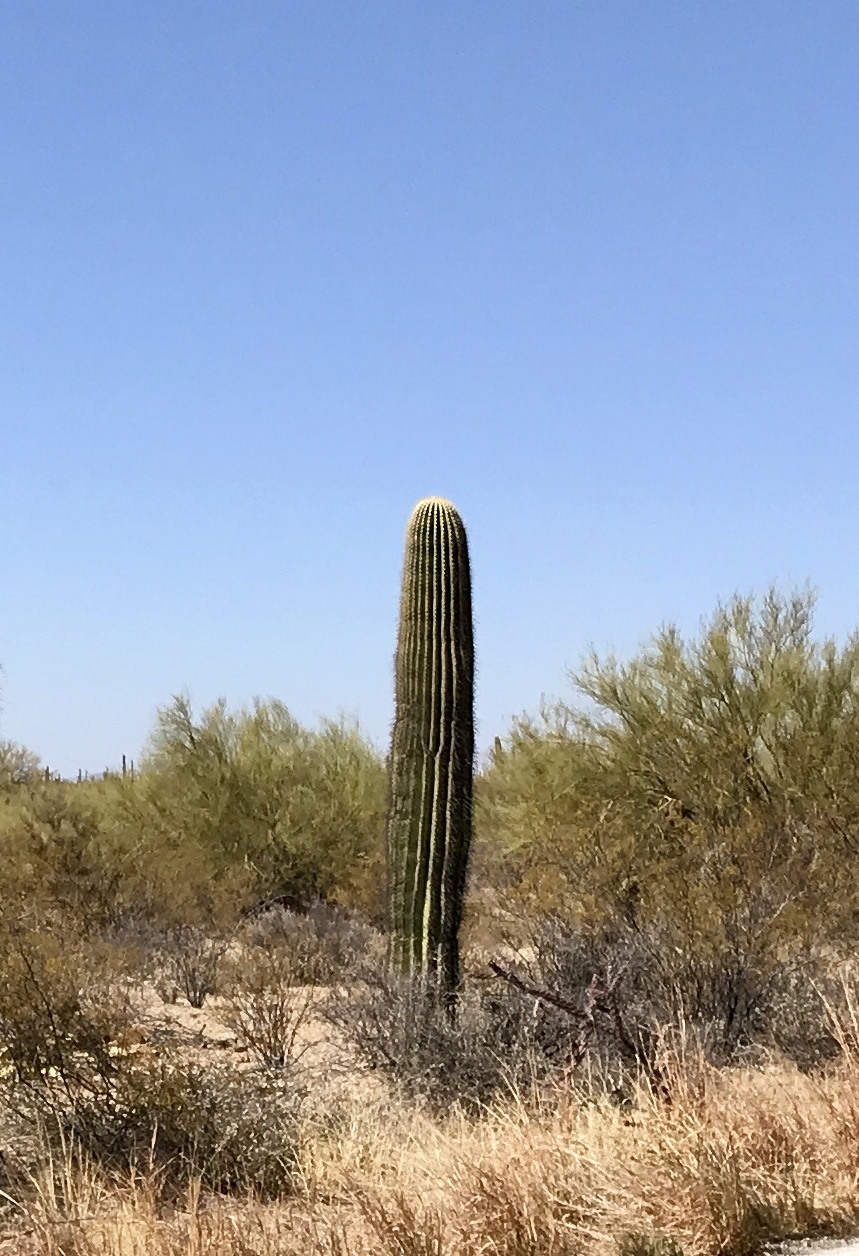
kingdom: Plantae
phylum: Tracheophyta
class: Magnoliopsida
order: Caryophyllales
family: Cactaceae
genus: Carnegiea
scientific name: Carnegiea gigantea
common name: Saguaro
